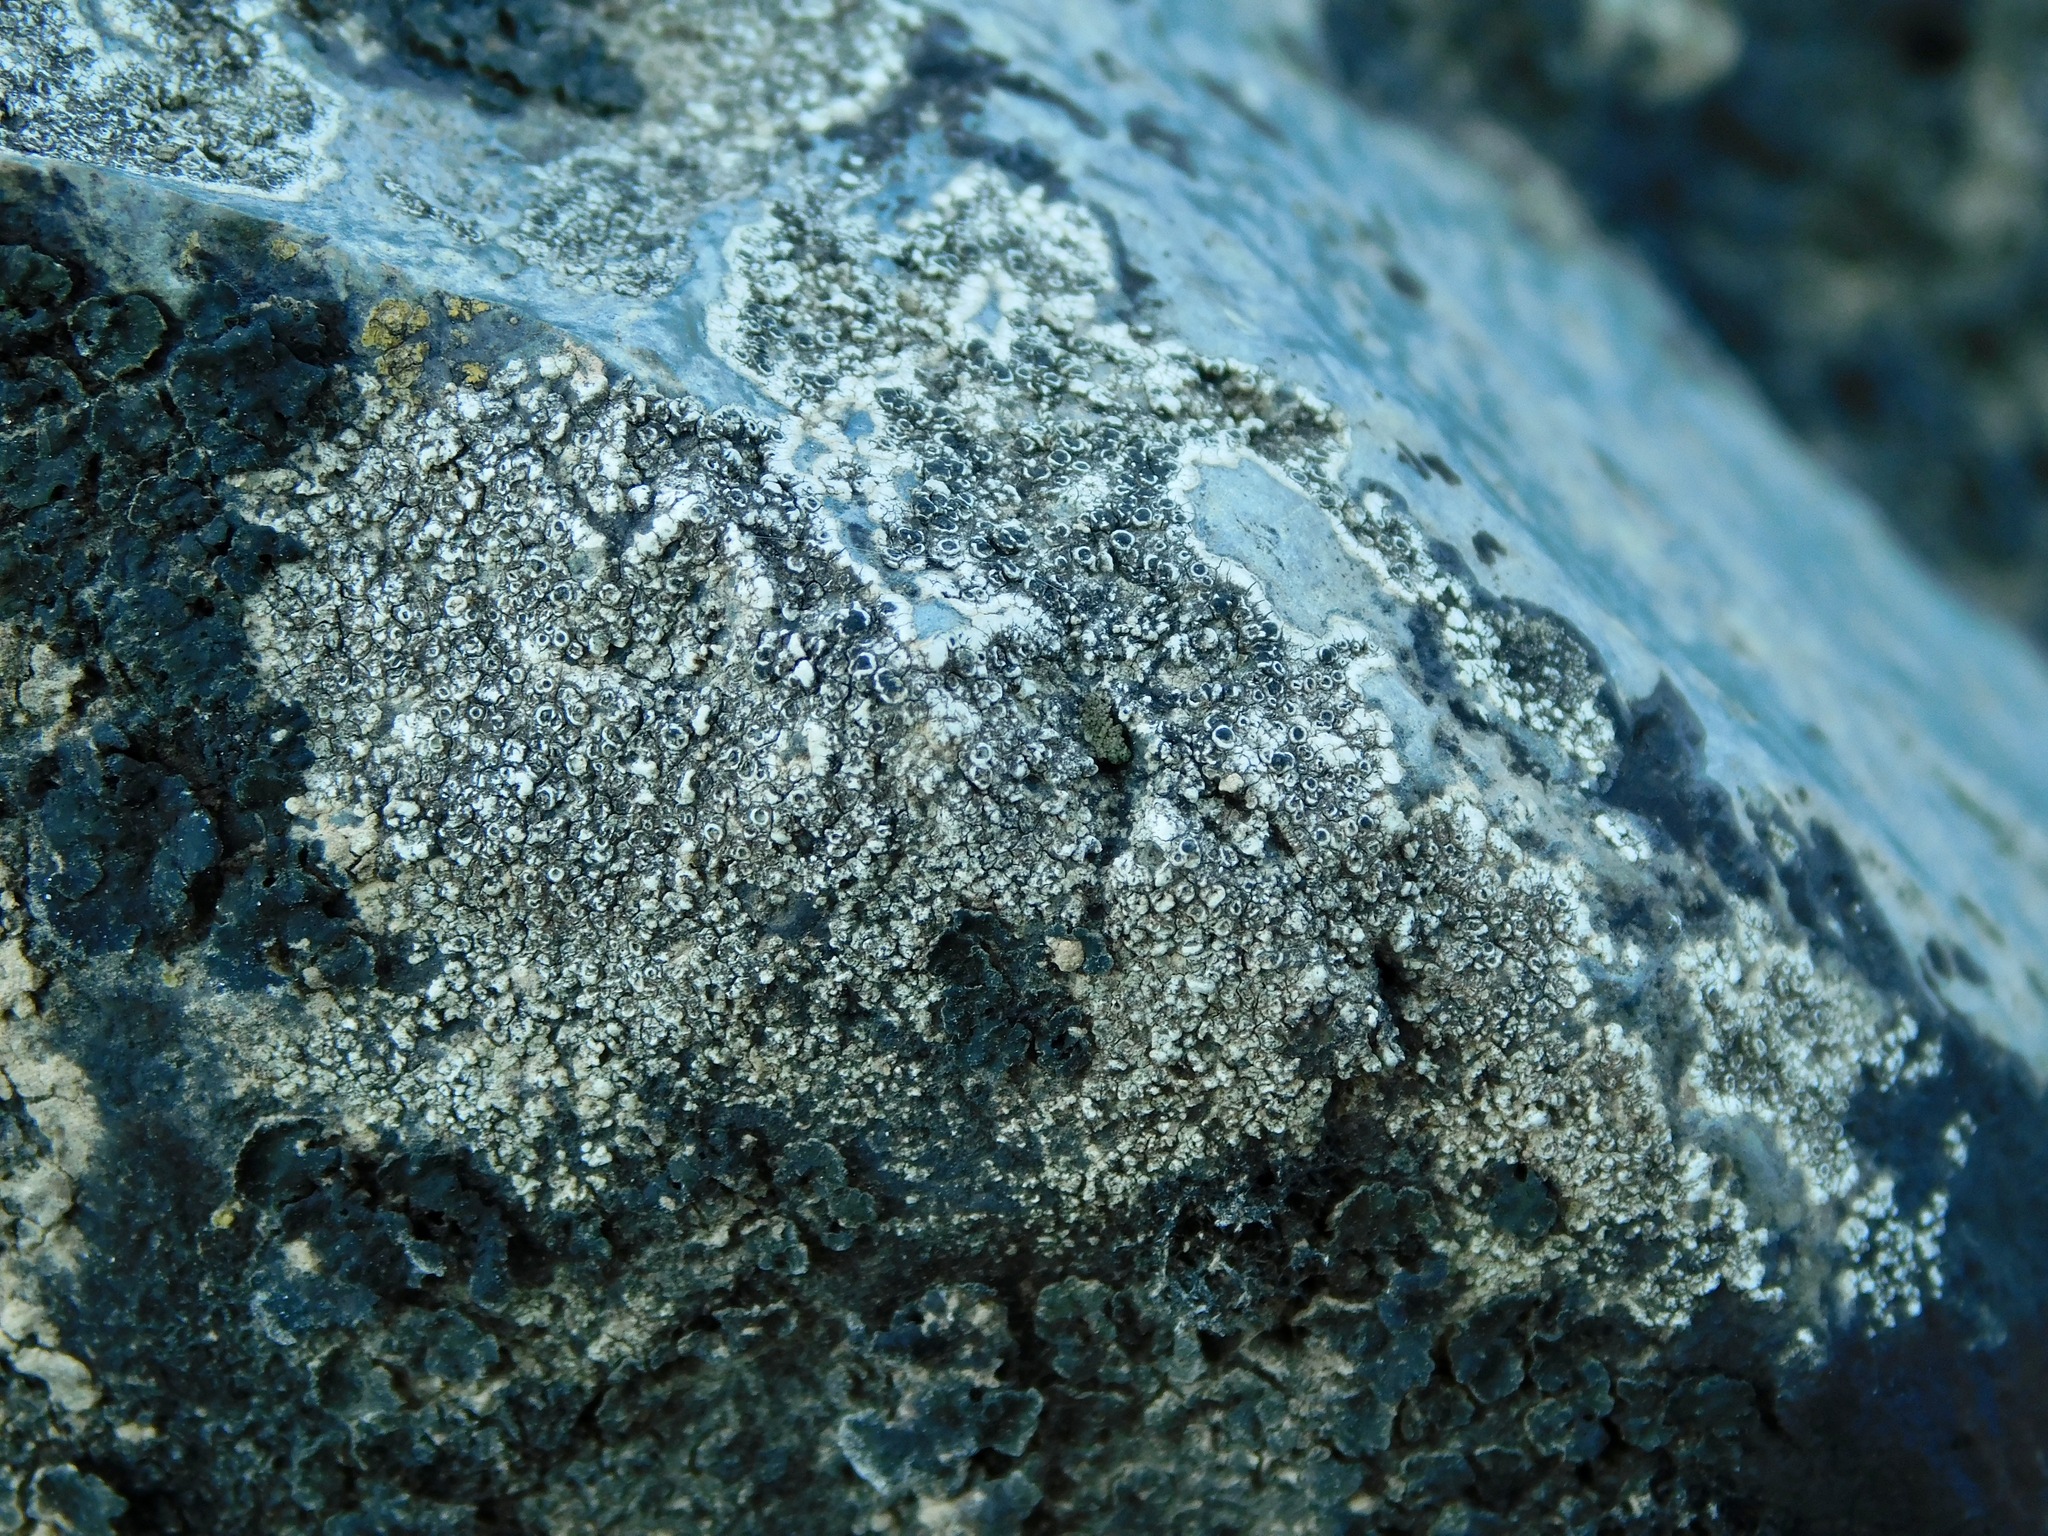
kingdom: Fungi
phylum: Ascomycota
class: Lecanoromycetes
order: Caliciales
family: Physciaceae
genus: Mischoblastia
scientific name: Mischoblastia oxydata
